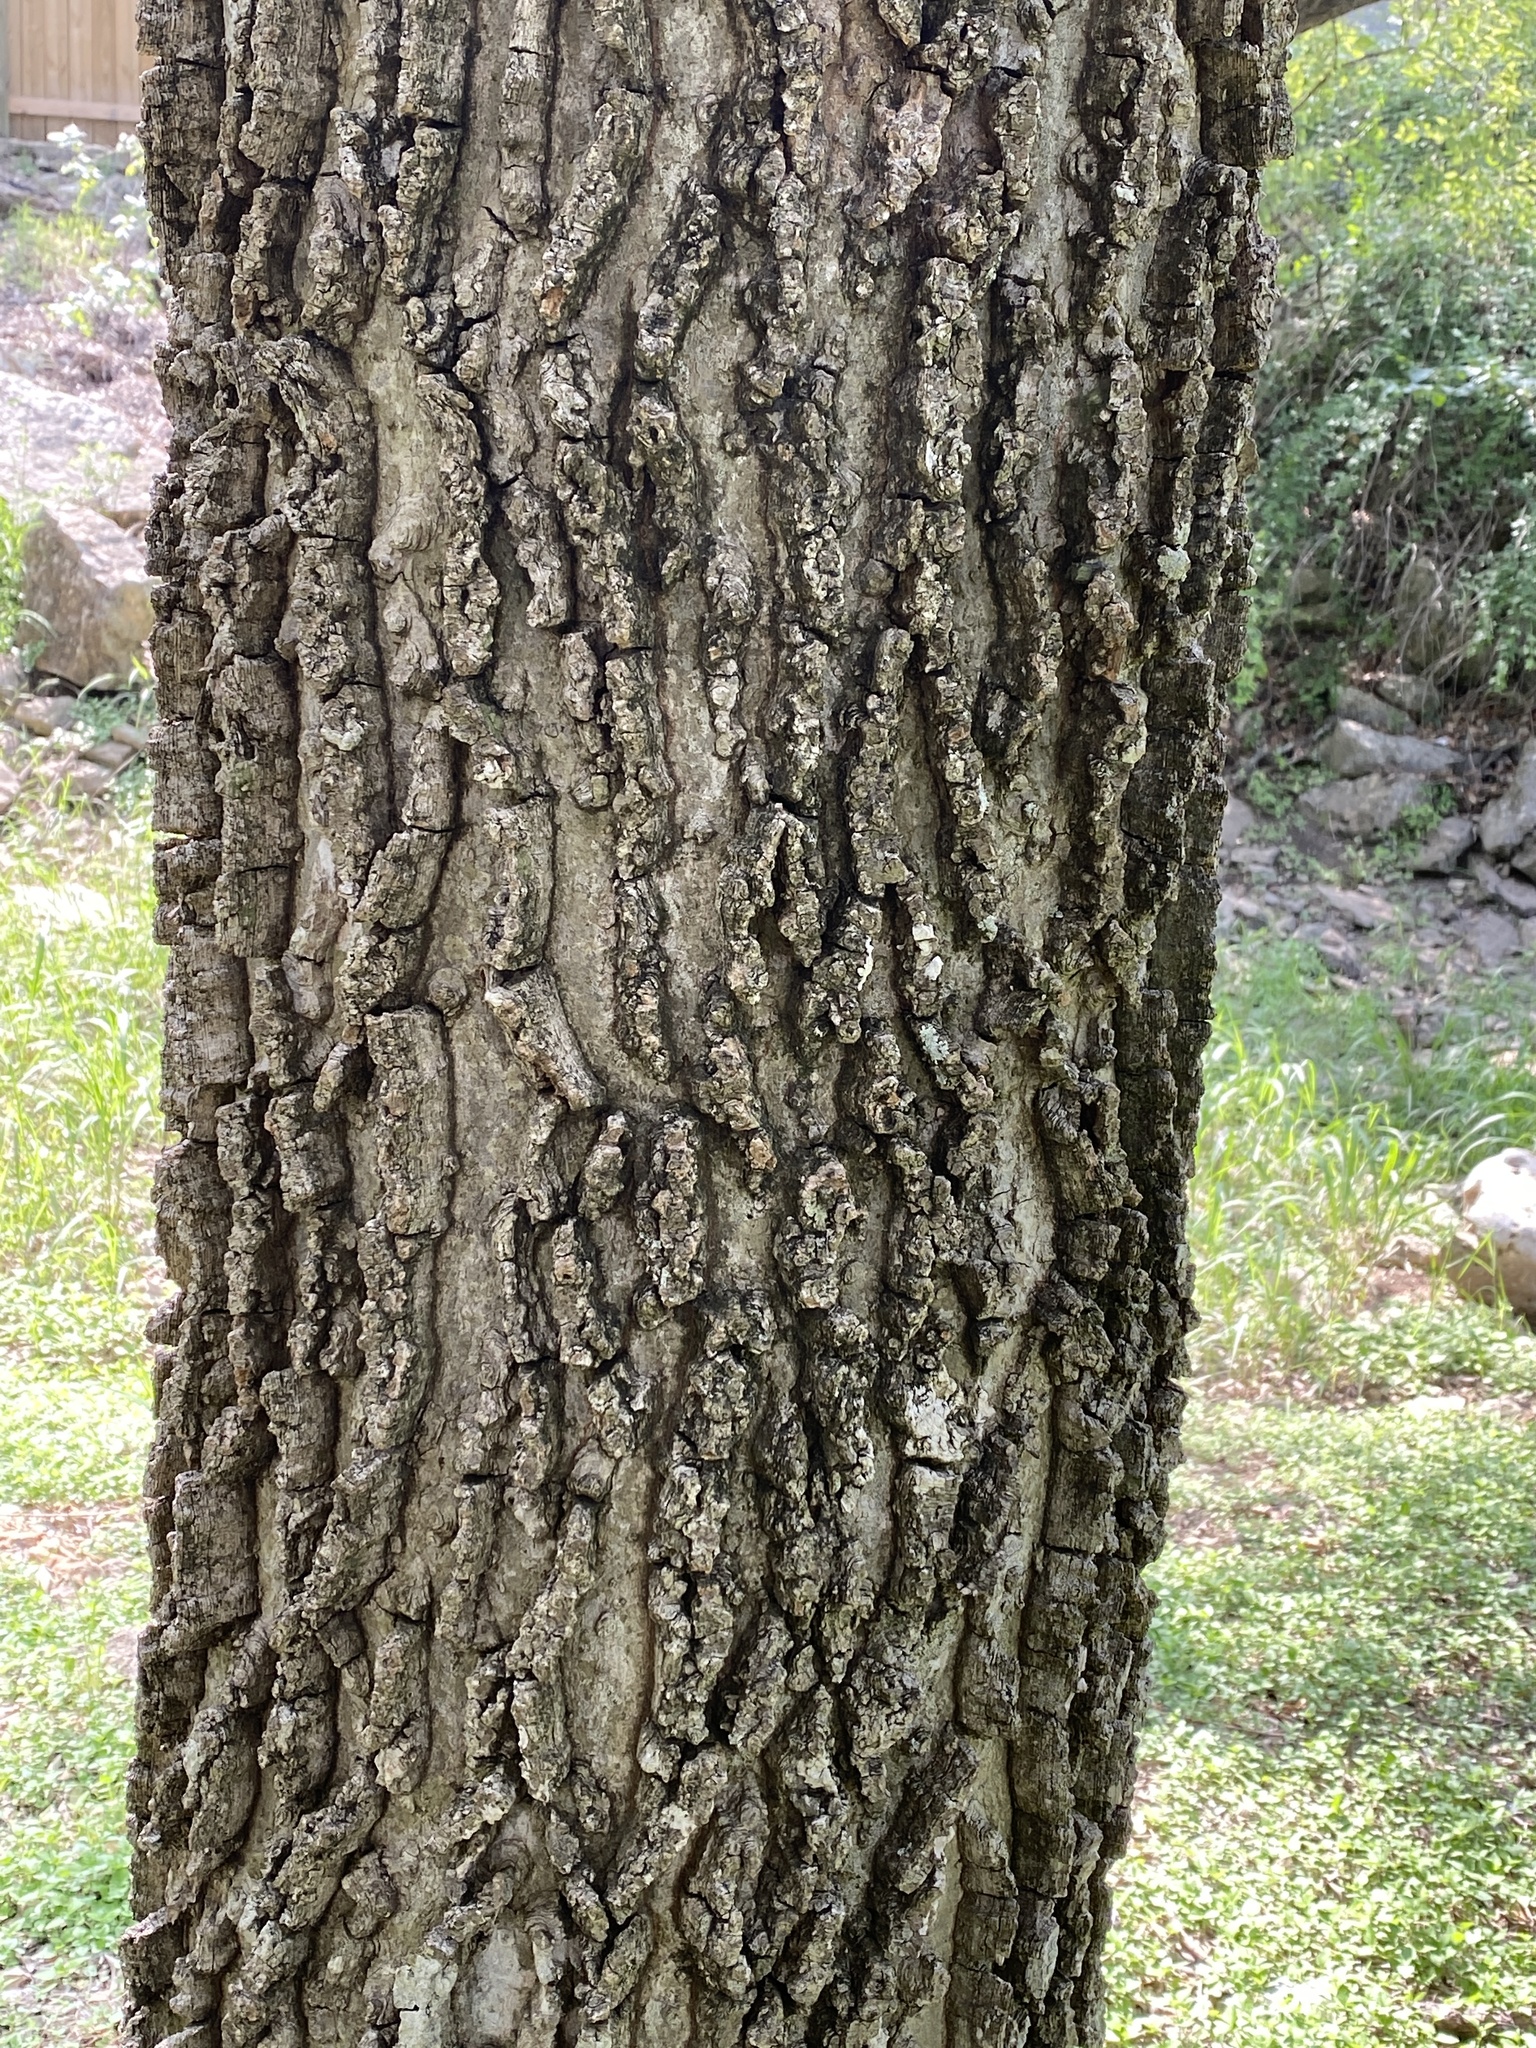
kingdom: Plantae
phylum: Tracheophyta
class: Magnoliopsida
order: Rosales
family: Cannabaceae
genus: Celtis
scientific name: Celtis reticulata
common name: Netleaf hackberry
